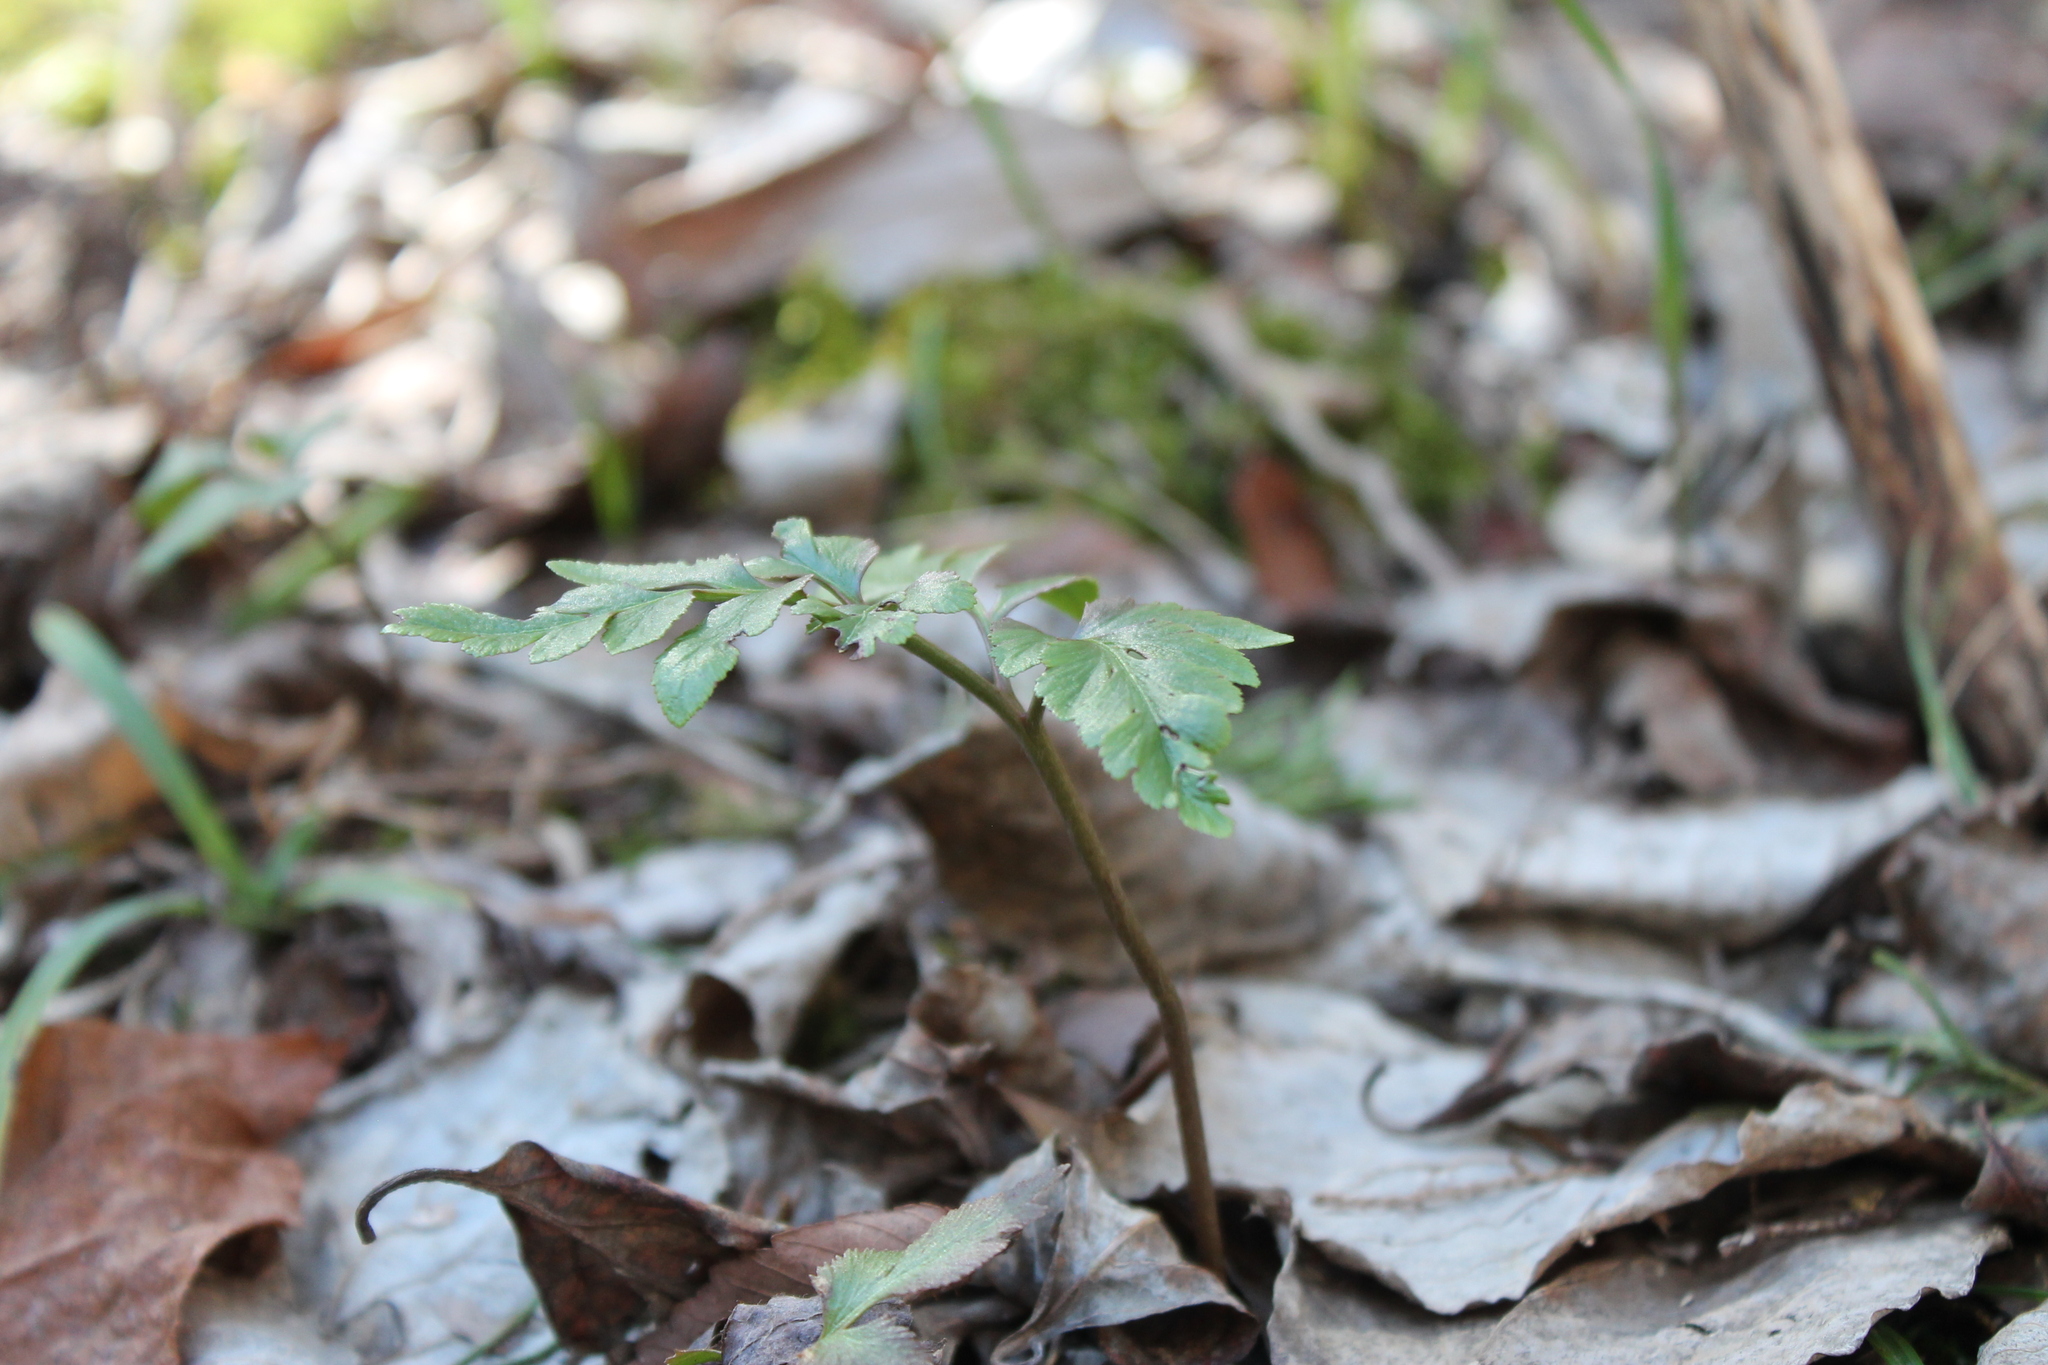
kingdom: Plantae
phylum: Tracheophyta
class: Polypodiopsida
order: Ophioglossales
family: Ophioglossaceae
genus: Sceptridium
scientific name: Sceptridium dissectum
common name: Cut-leaved grapefern
